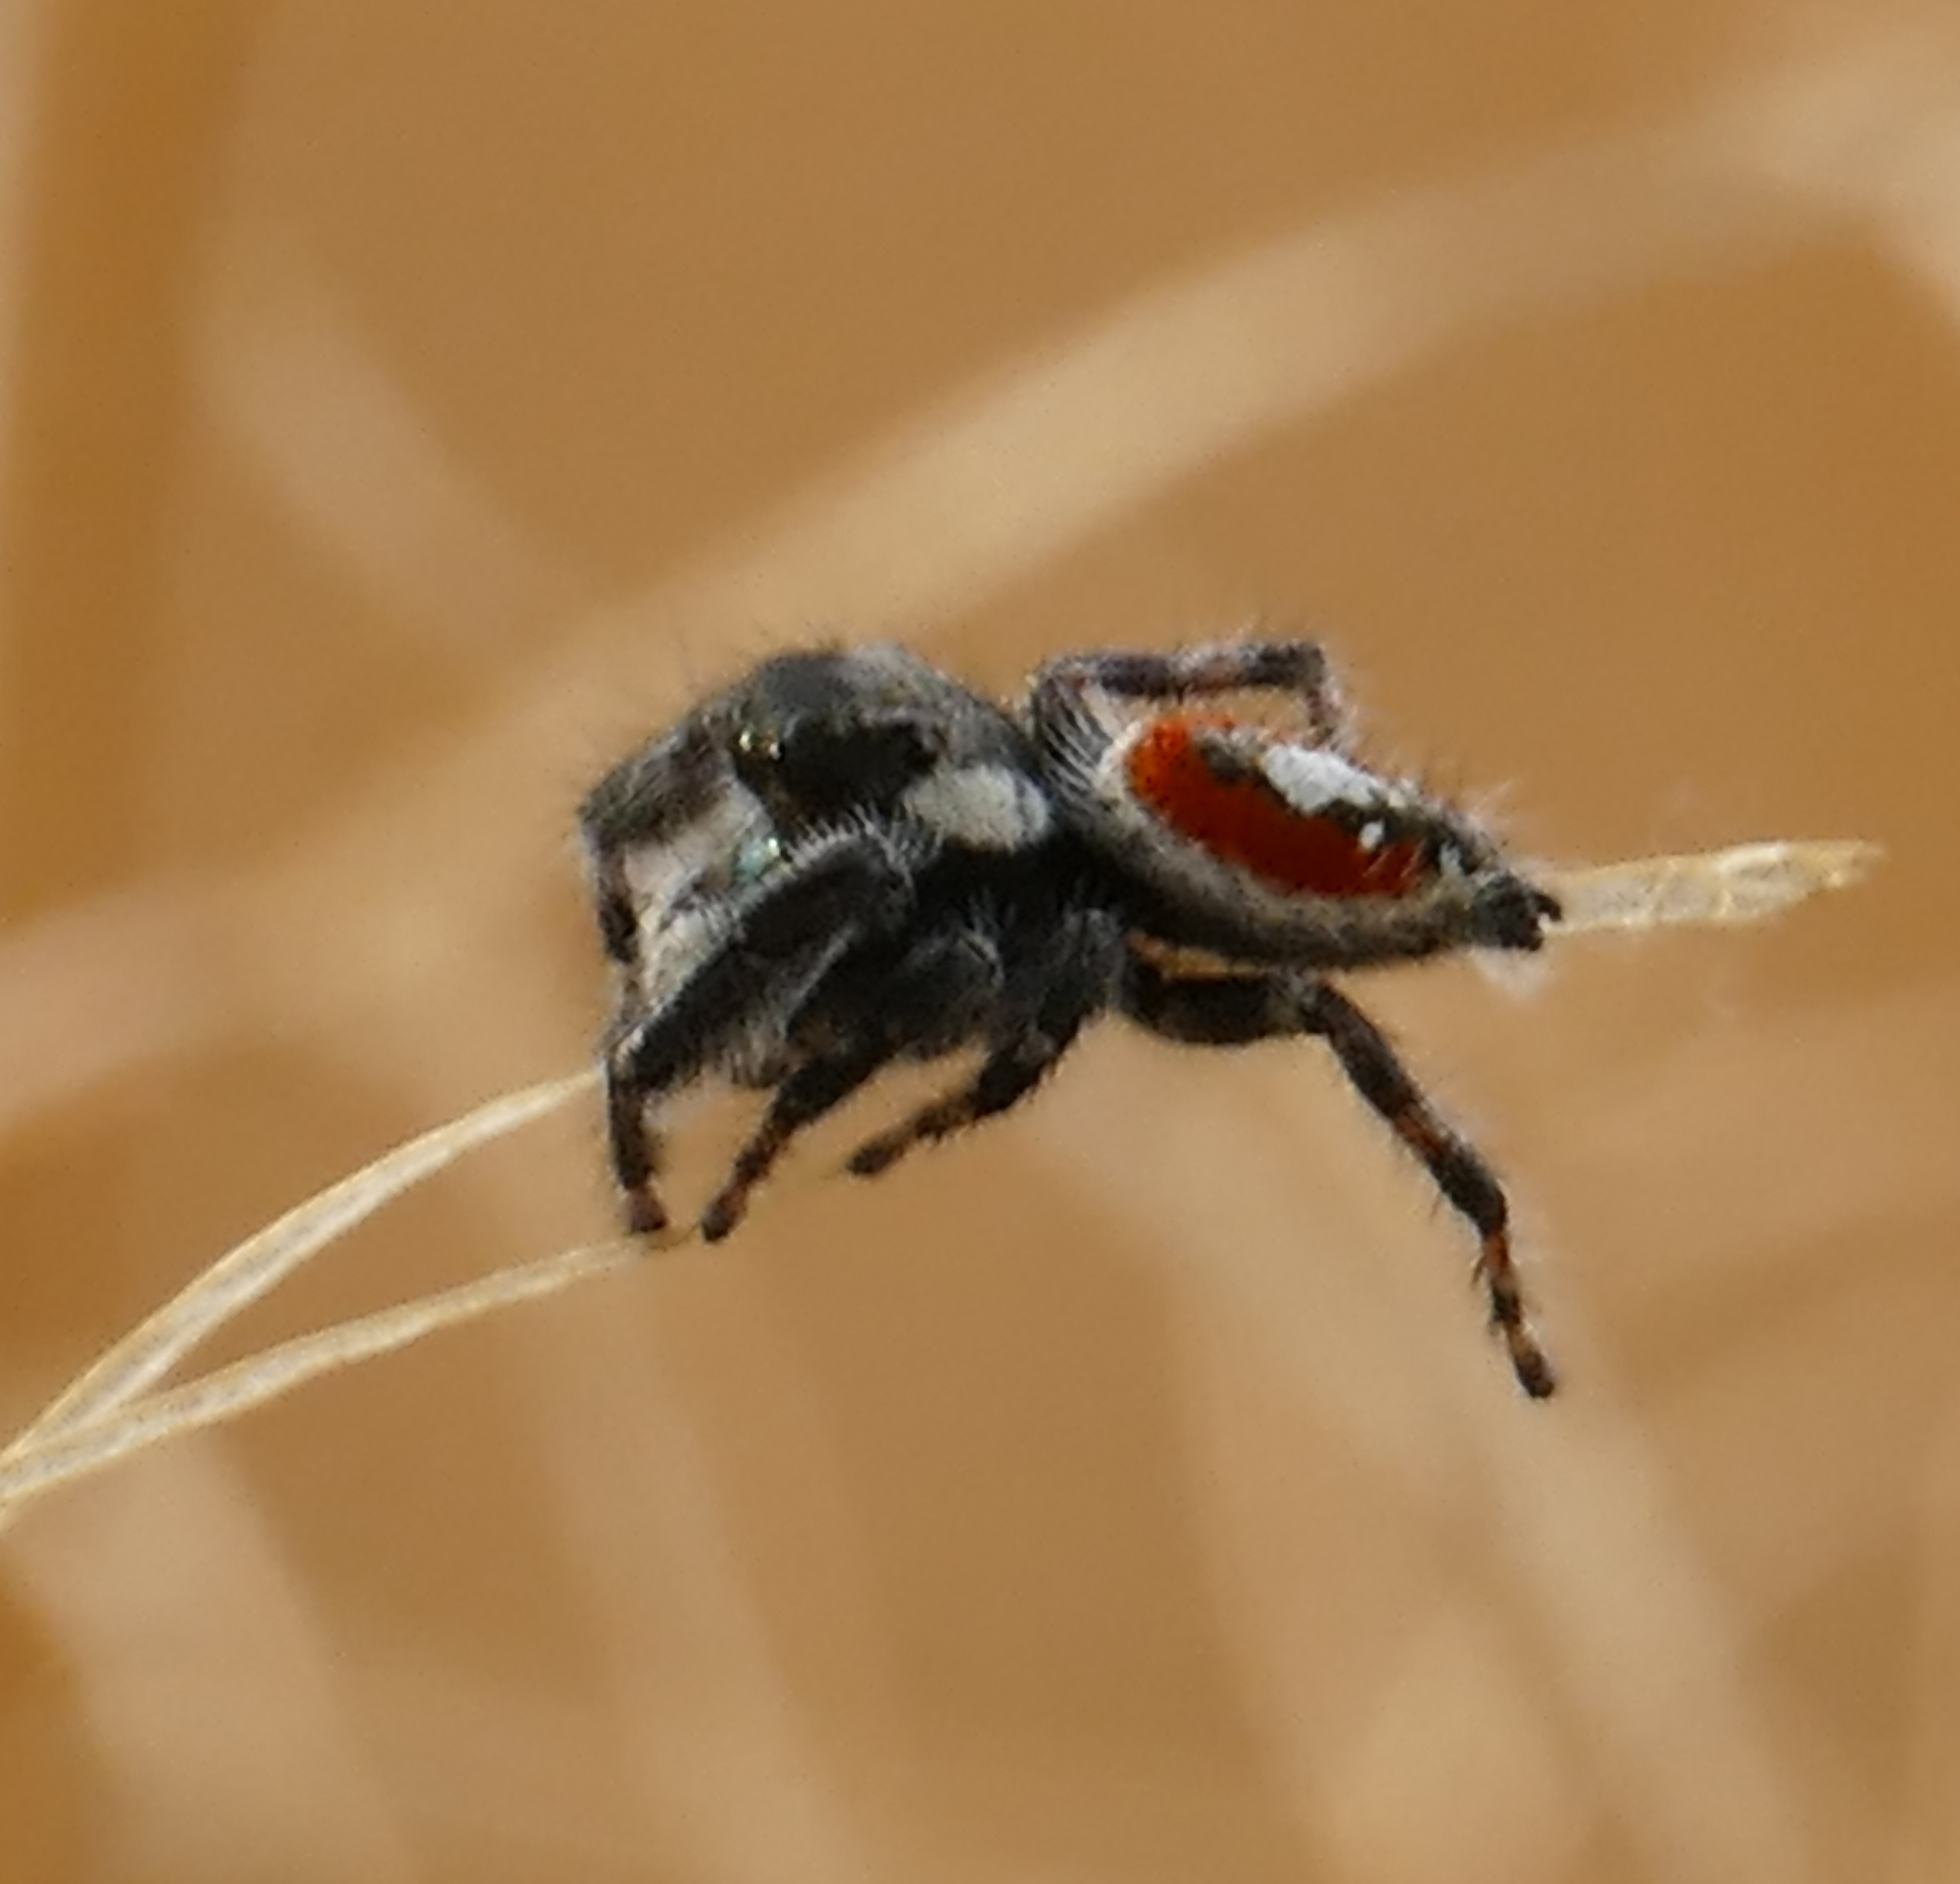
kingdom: Animalia
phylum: Arthropoda
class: Arachnida
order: Araneae
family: Salticidae
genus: Phidippus
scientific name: Phidippus californicus
